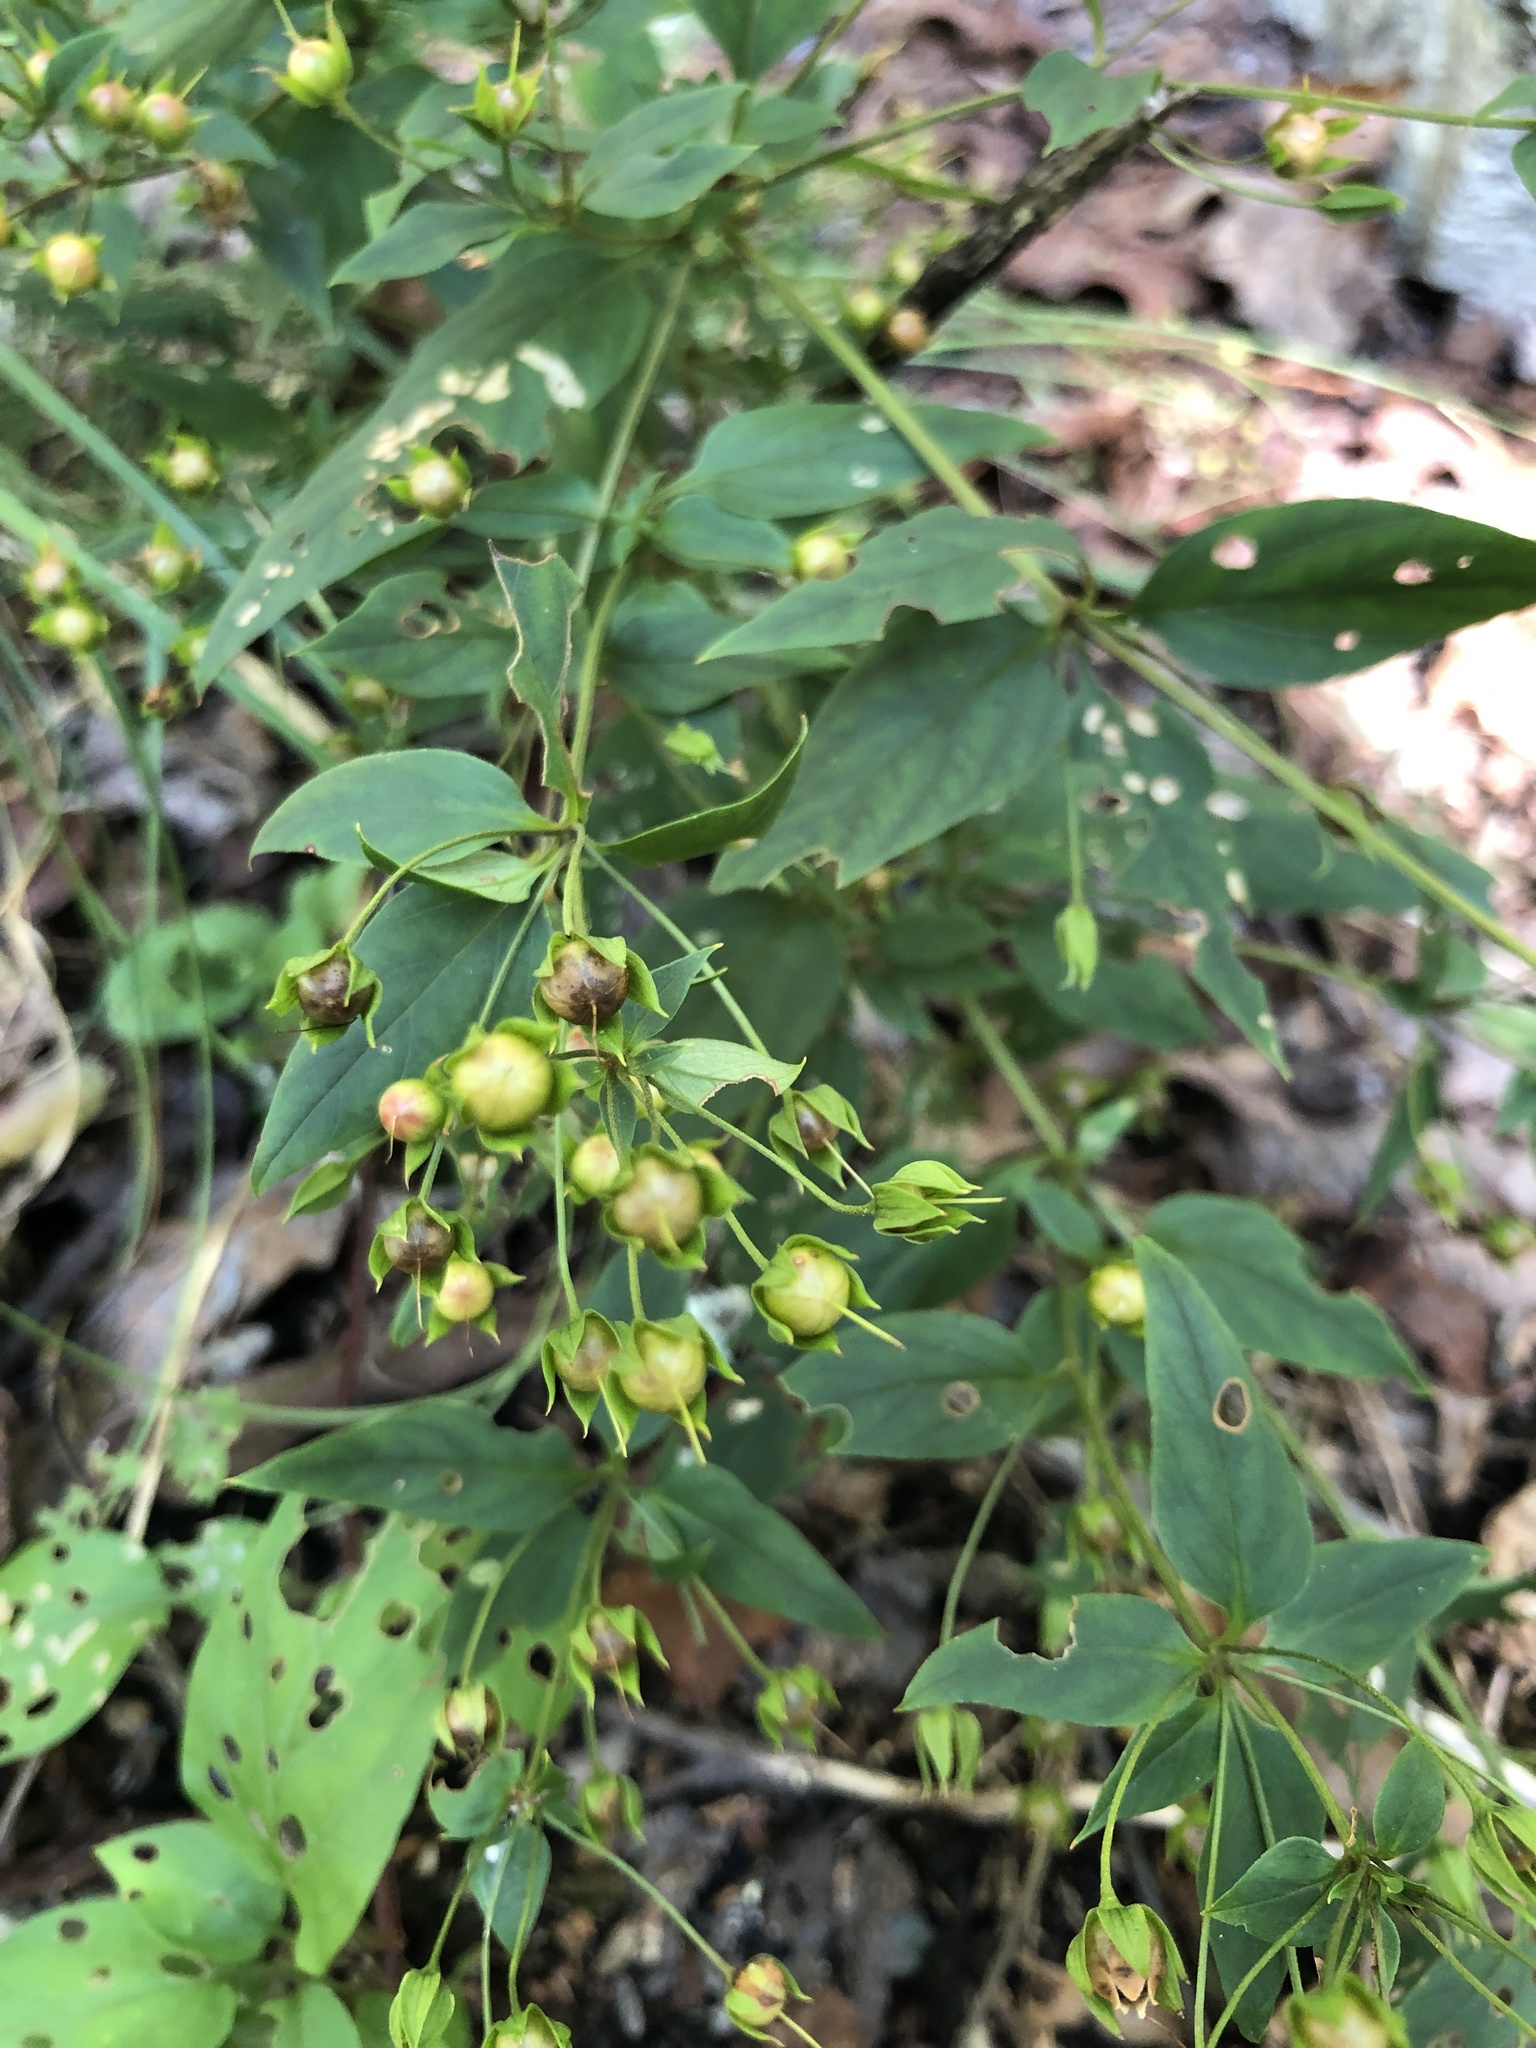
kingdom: Plantae
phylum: Tracheophyta
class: Magnoliopsida
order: Ericales
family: Primulaceae
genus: Lysimachia
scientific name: Lysimachia quadrifolia
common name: Whorled loosestrife
